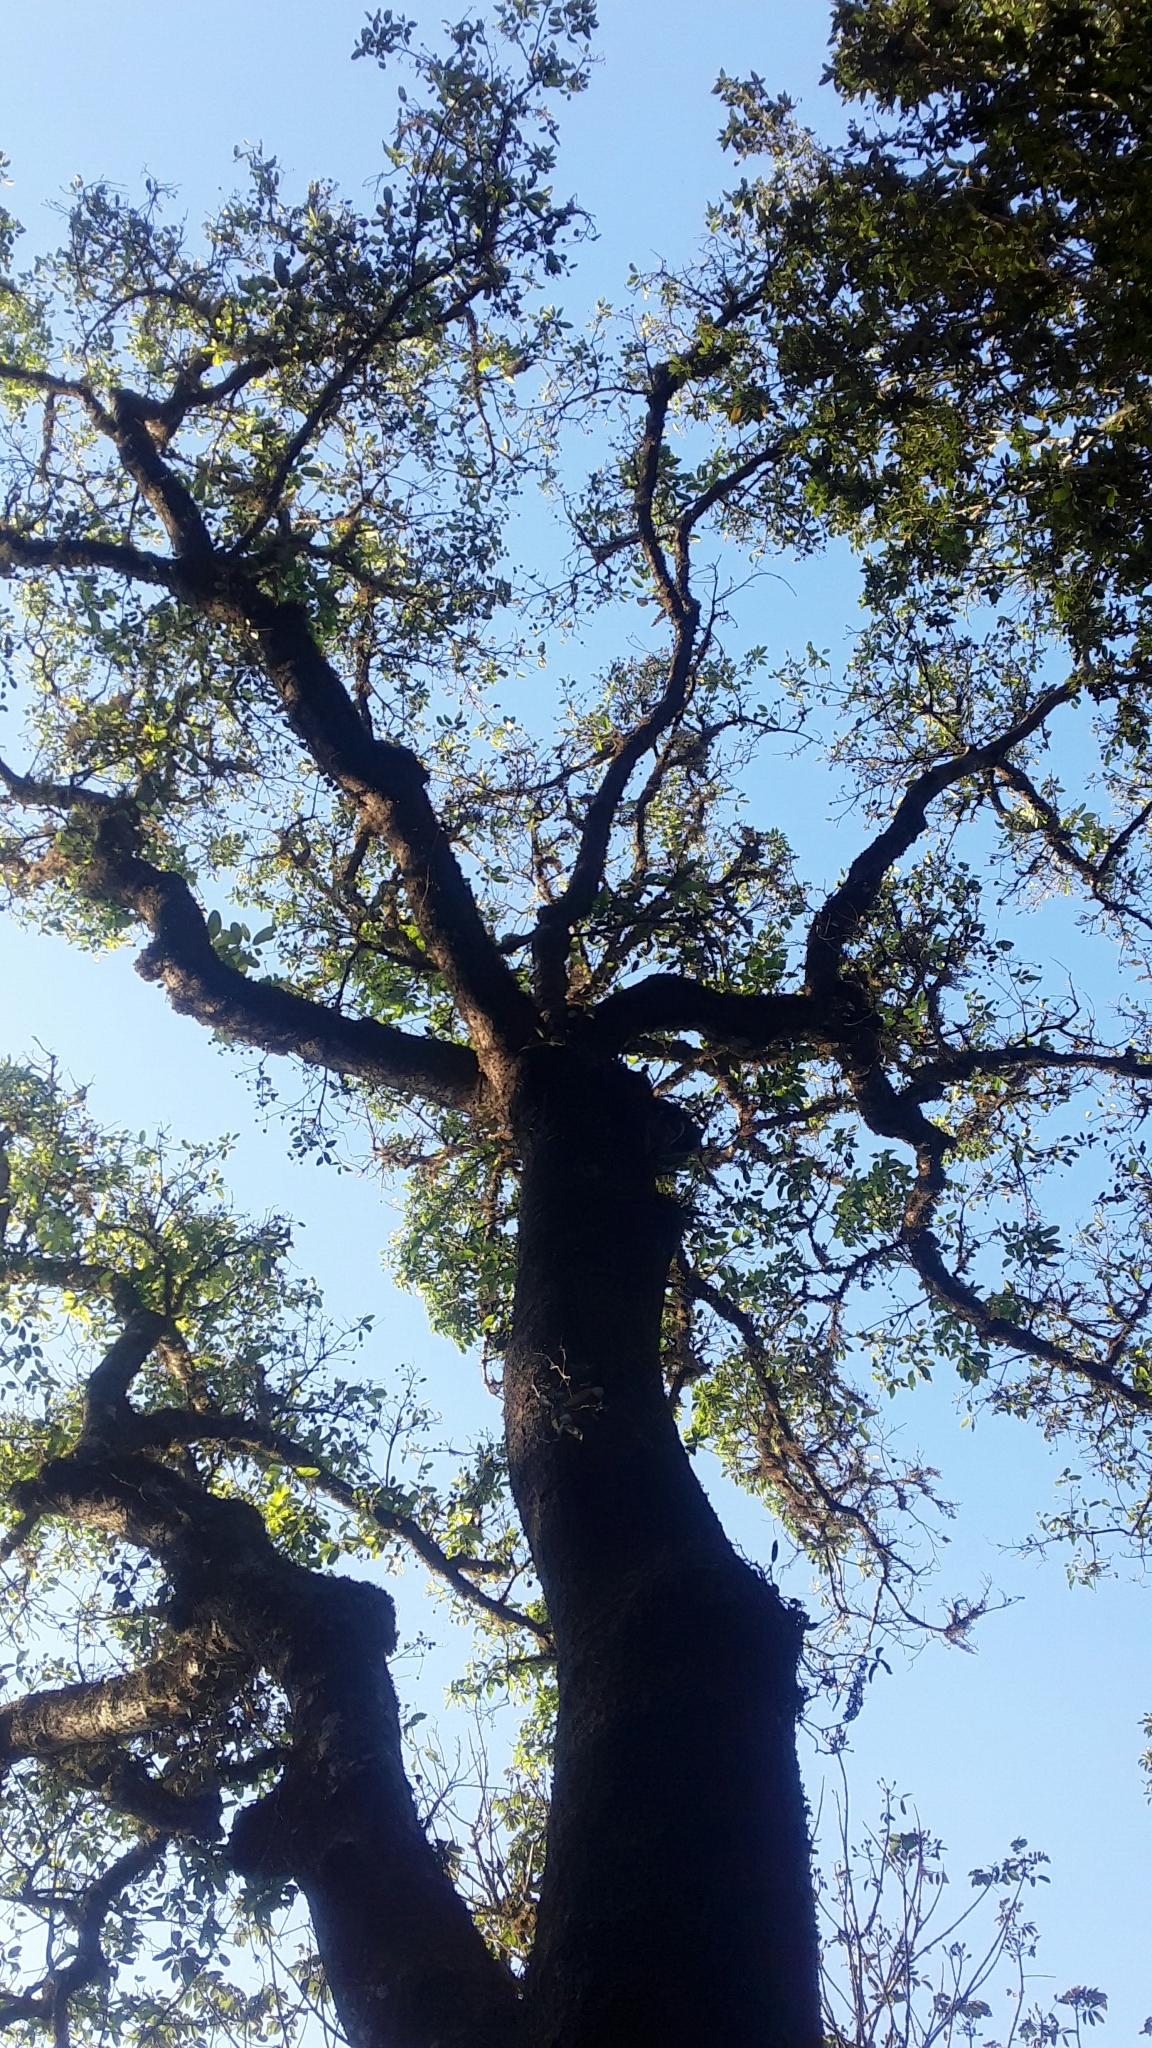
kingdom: Plantae
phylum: Tracheophyta
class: Magnoliopsida
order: Laurales
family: Lauraceae
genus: Machilus
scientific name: Machilus glaucescens
